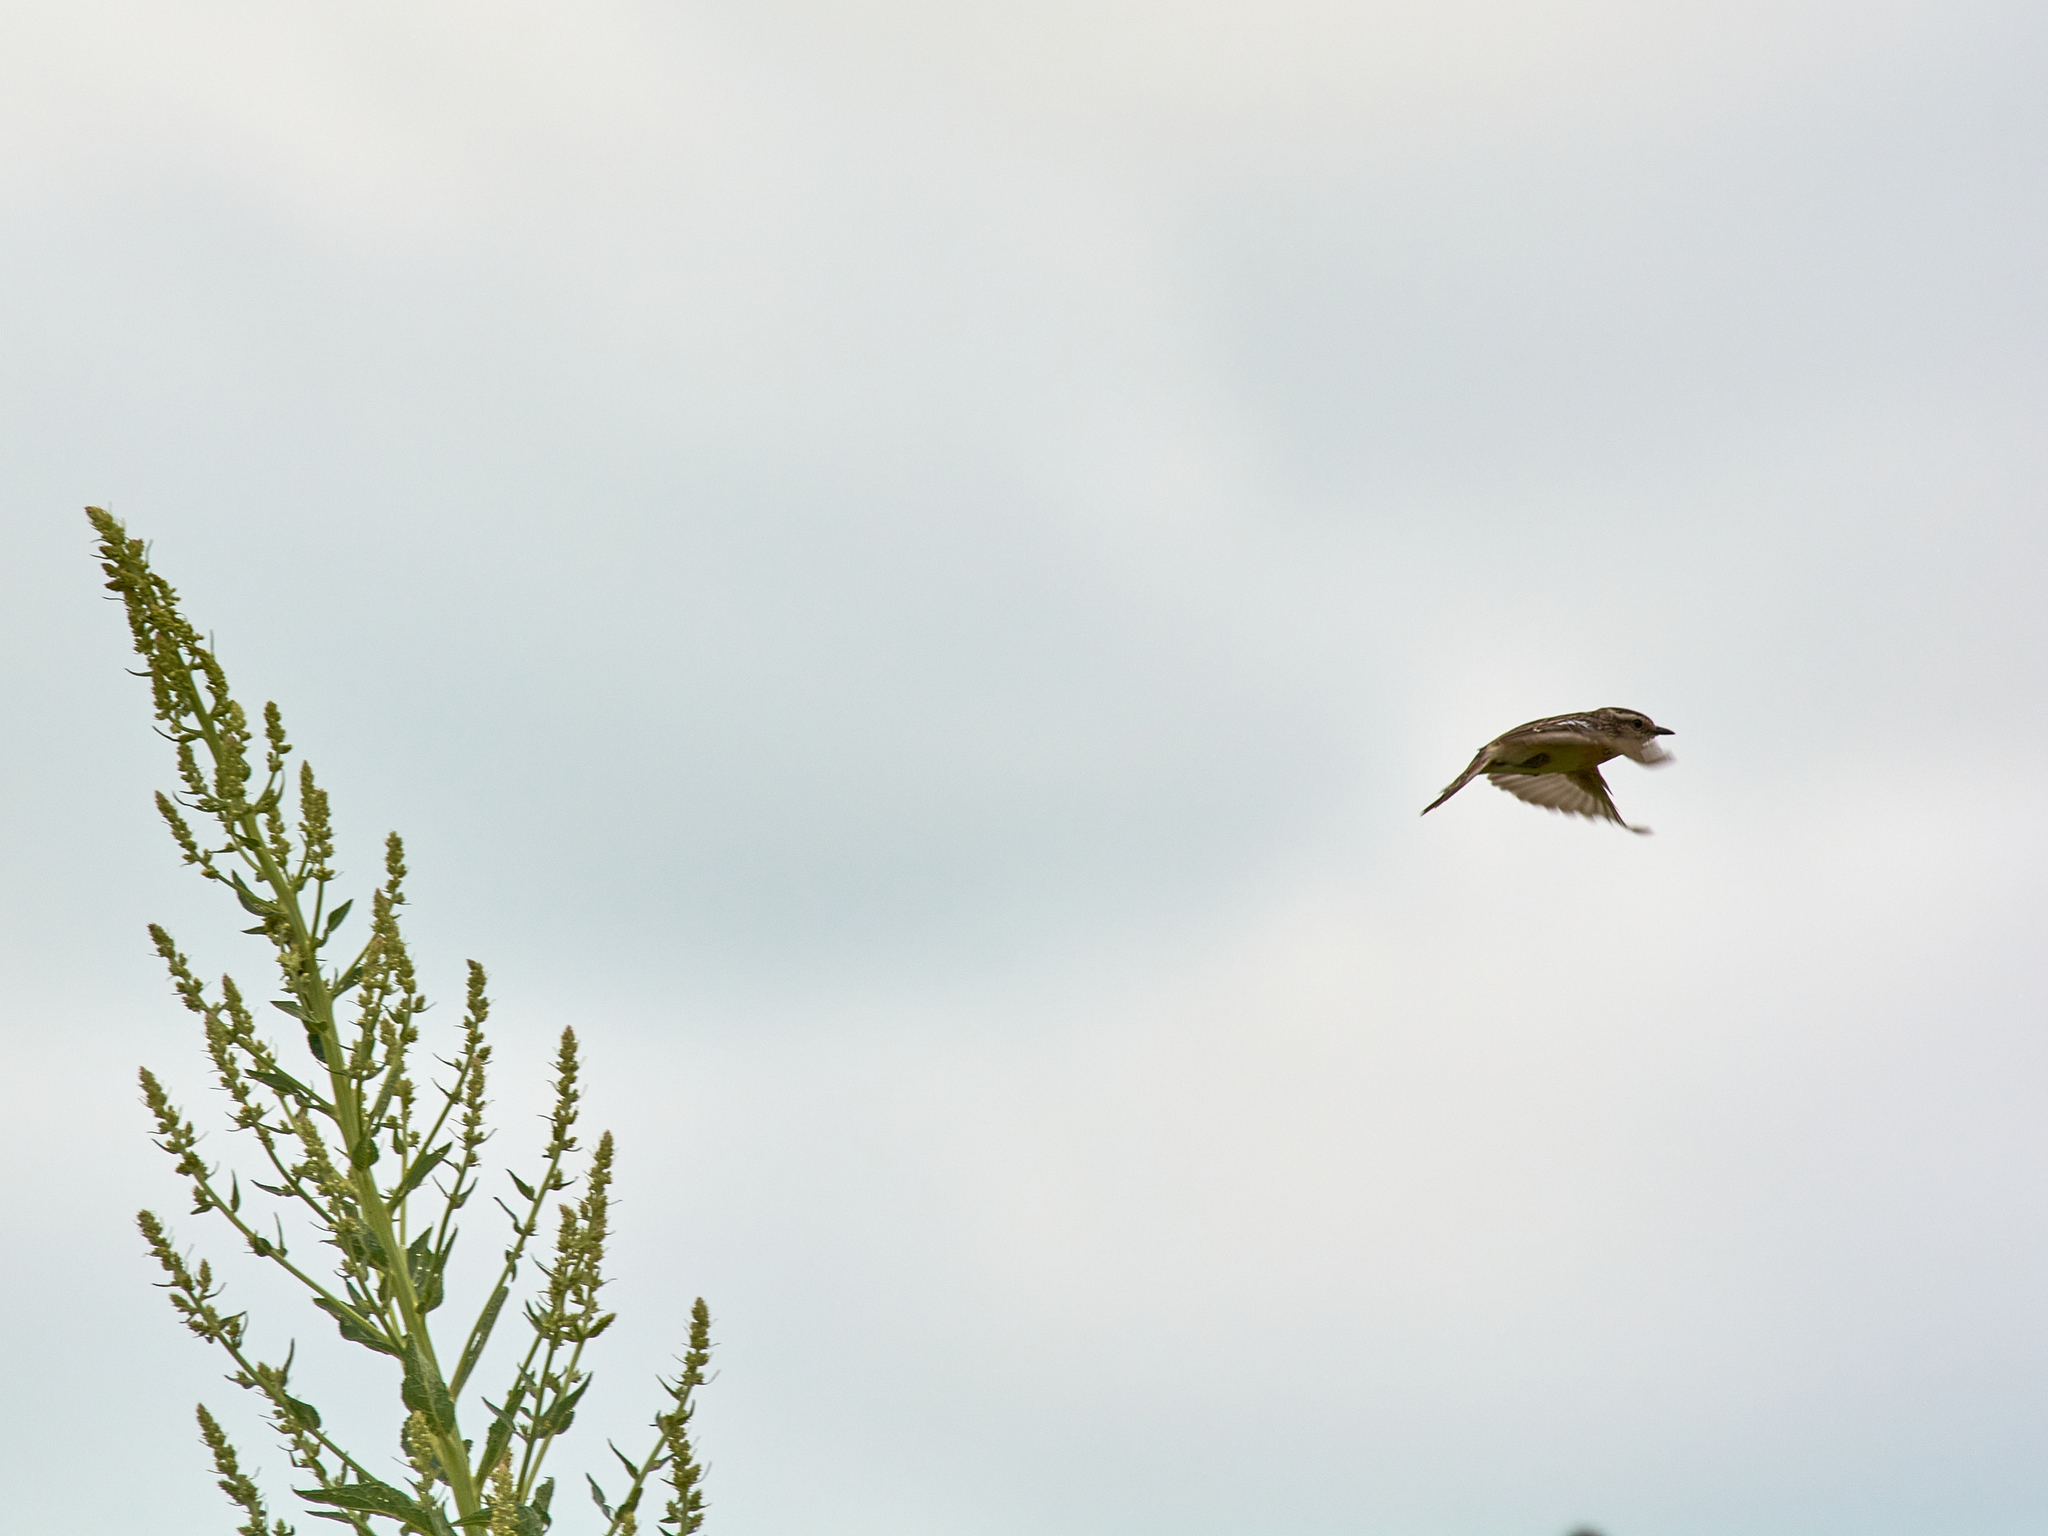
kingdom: Animalia
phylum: Chordata
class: Aves
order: Passeriformes
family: Muscicapidae
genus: Saxicola
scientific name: Saxicola rubetra
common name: Whinchat
